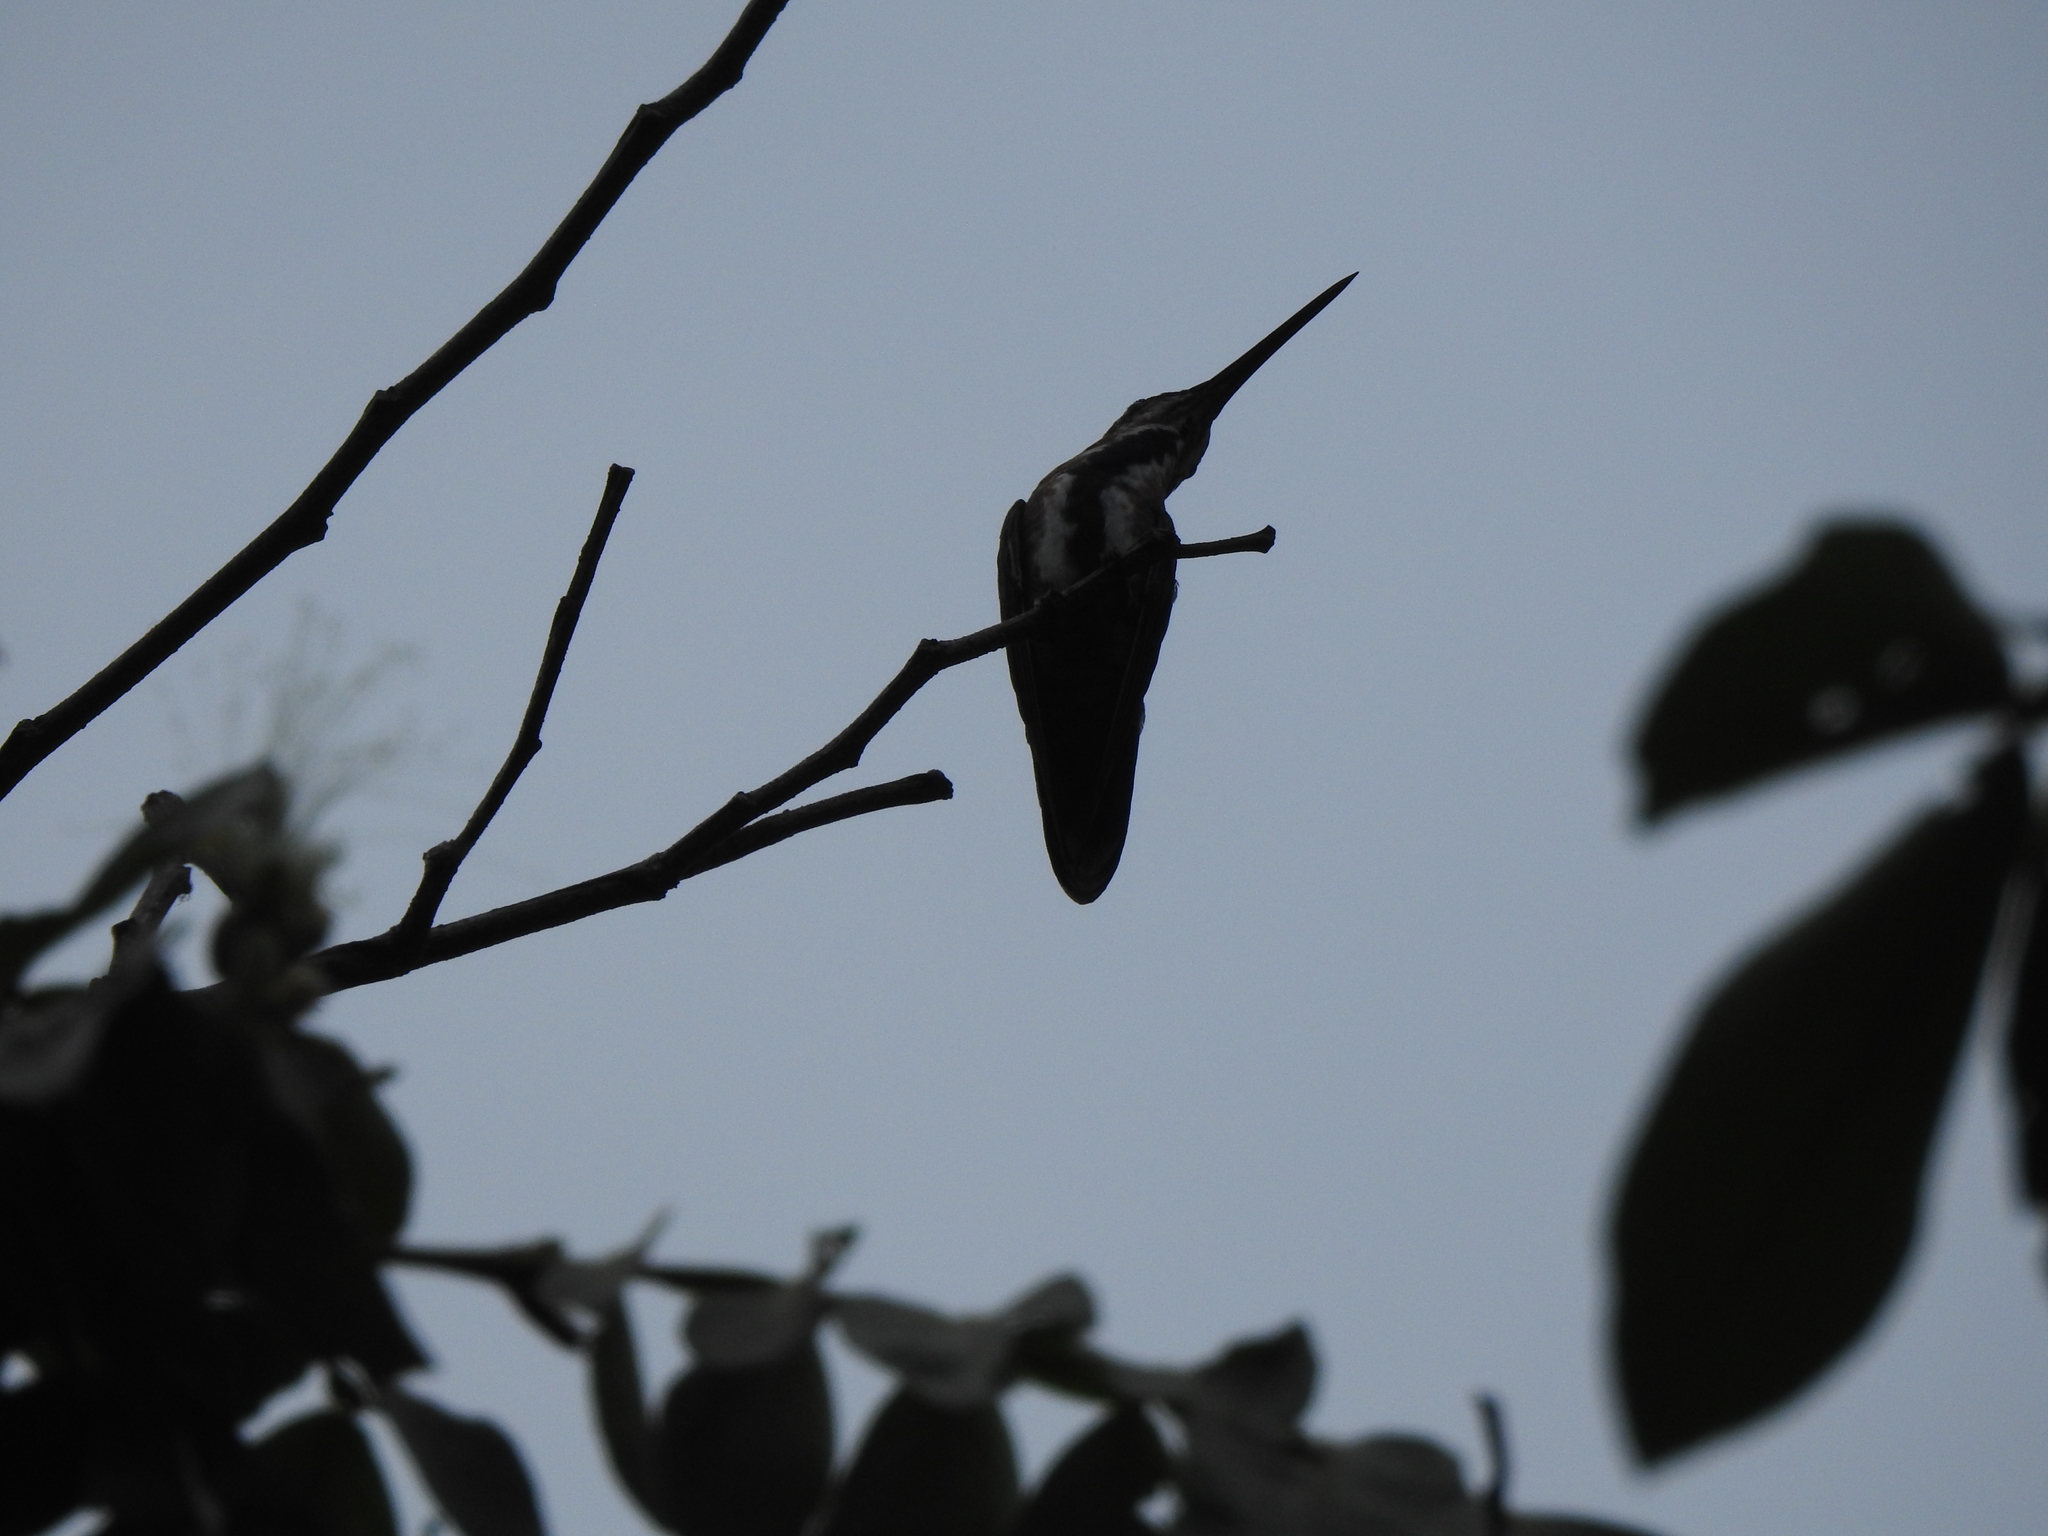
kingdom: Animalia
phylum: Chordata
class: Aves
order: Apodiformes
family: Trochilidae
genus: Anthracothorax
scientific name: Anthracothorax prevostii
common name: Green-breasted mango
